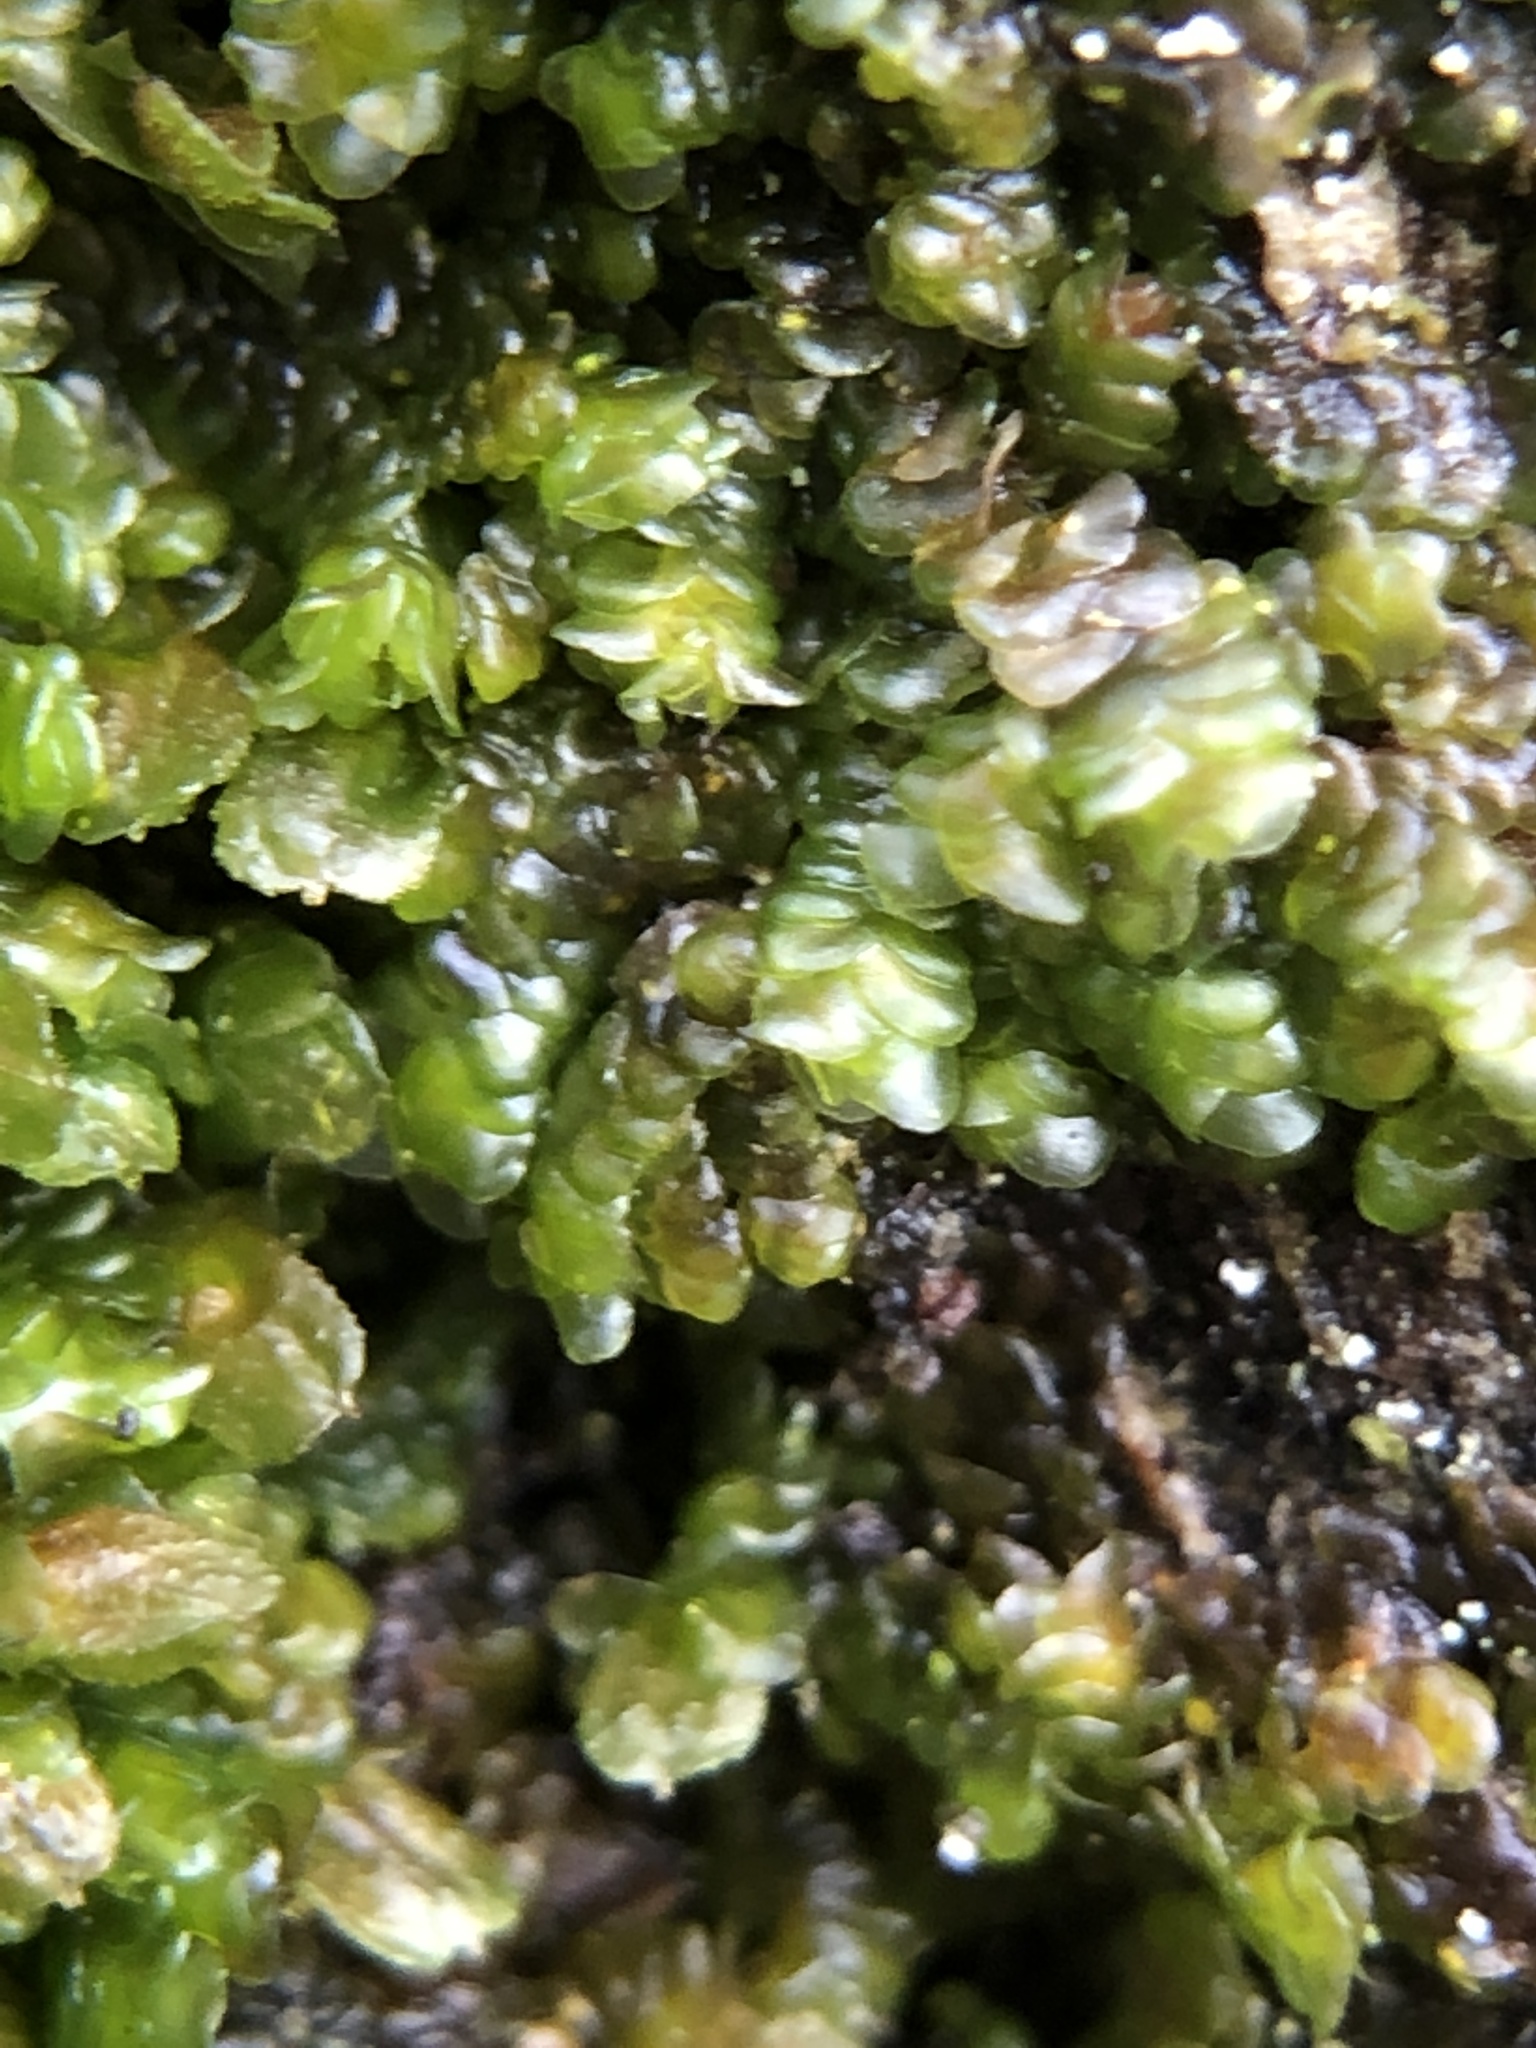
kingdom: Plantae
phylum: Marchantiophyta
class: Jungermanniopsida
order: Porellales
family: Frullaniaceae
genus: Frullania
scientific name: Frullania dilatata
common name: Dilated scalewort
